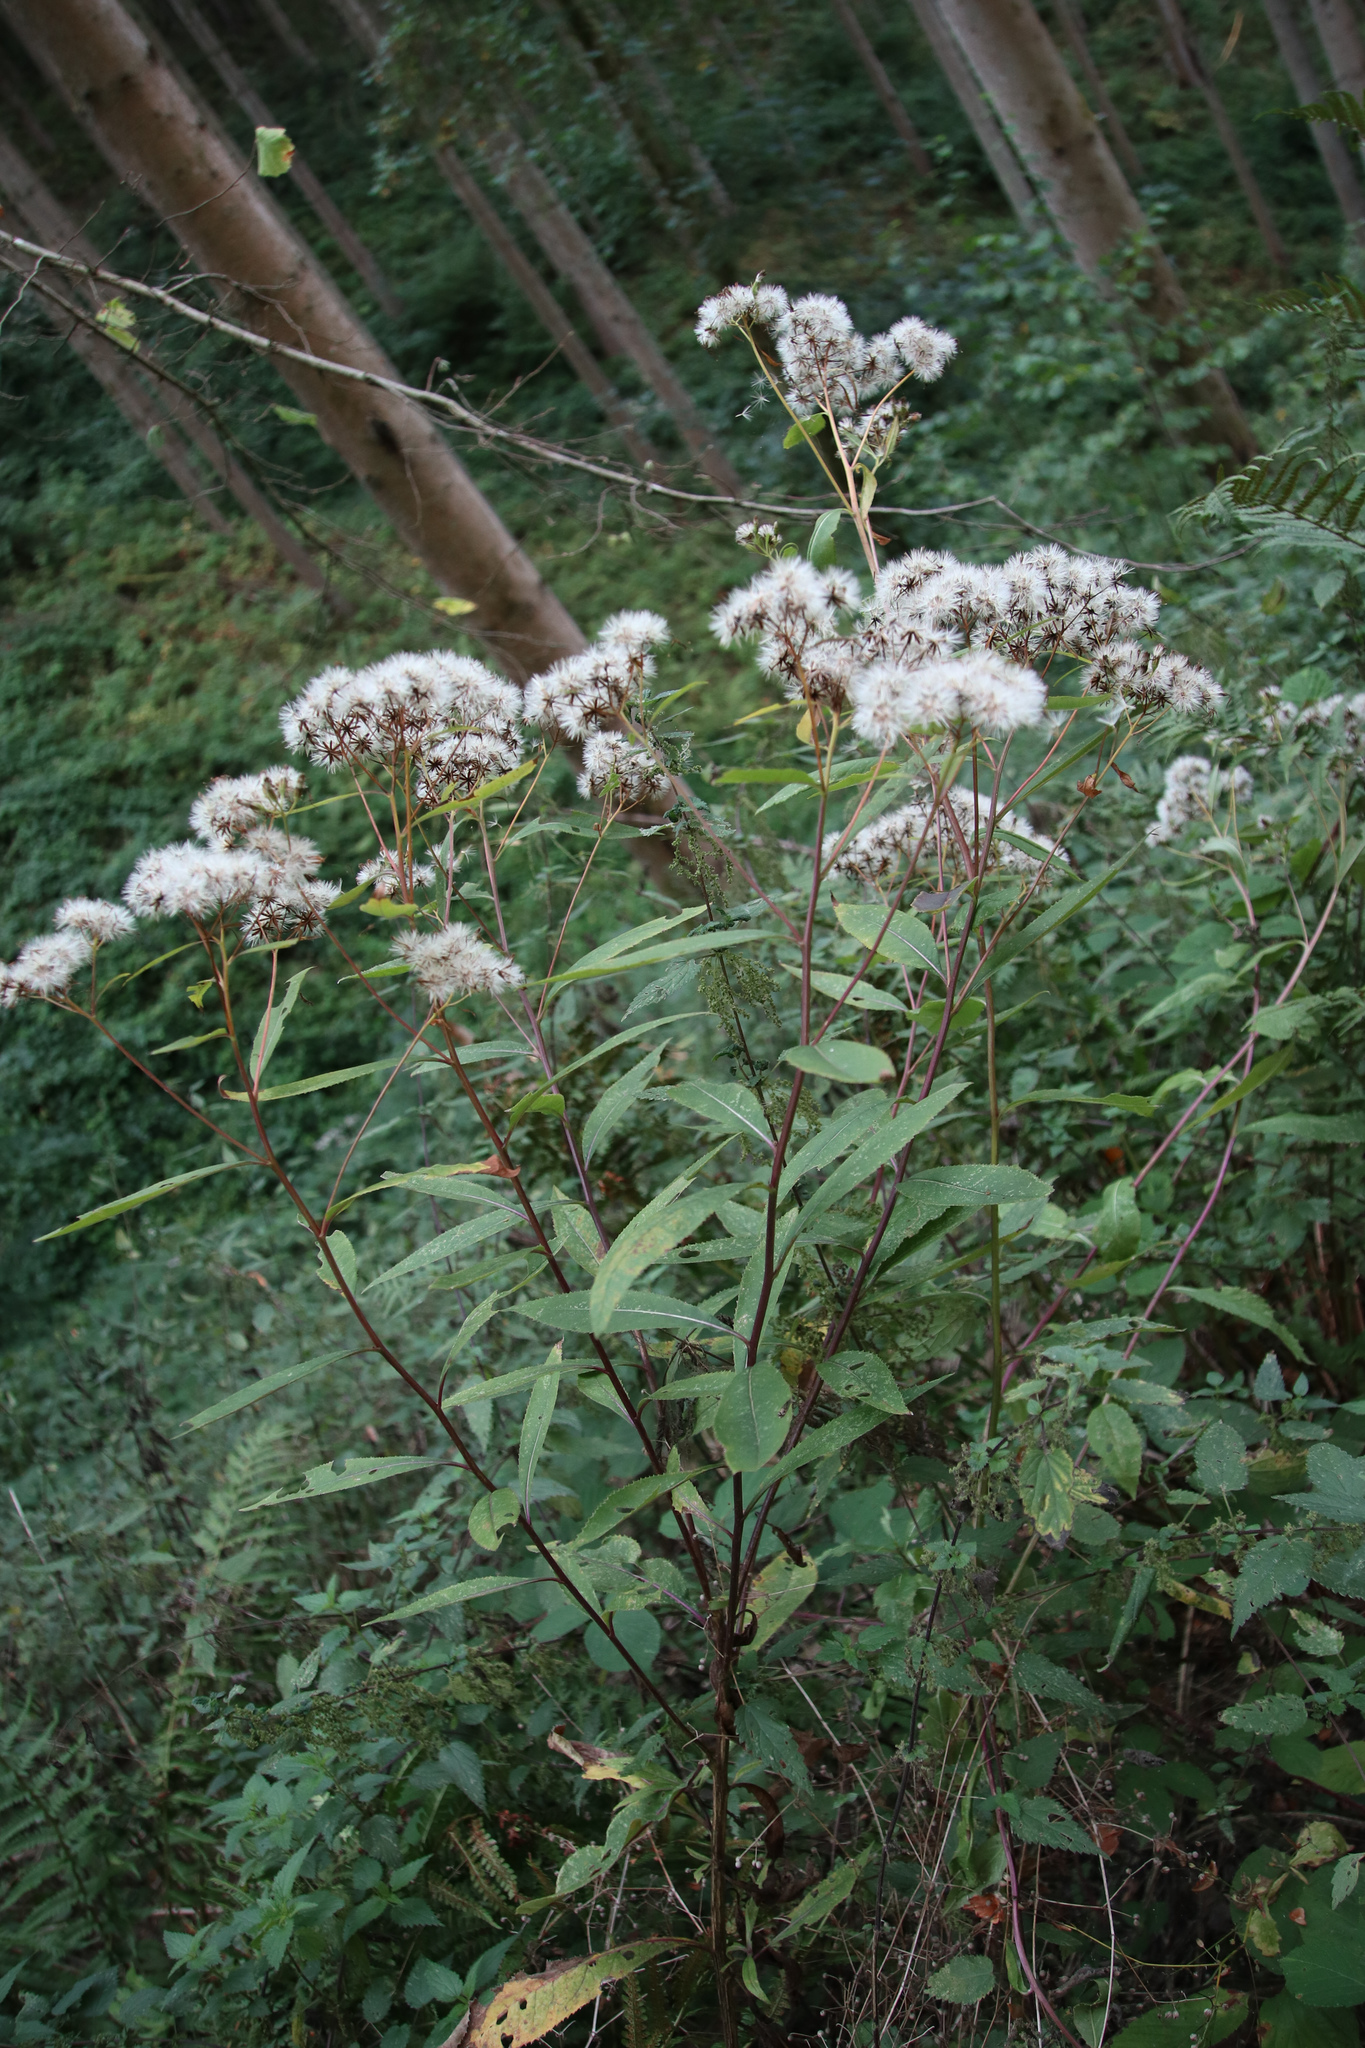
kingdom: Plantae
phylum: Tracheophyta
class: Magnoliopsida
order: Asterales
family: Asteraceae
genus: Eupatorium
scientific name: Eupatorium cannabinum
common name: Hemp-agrimony
